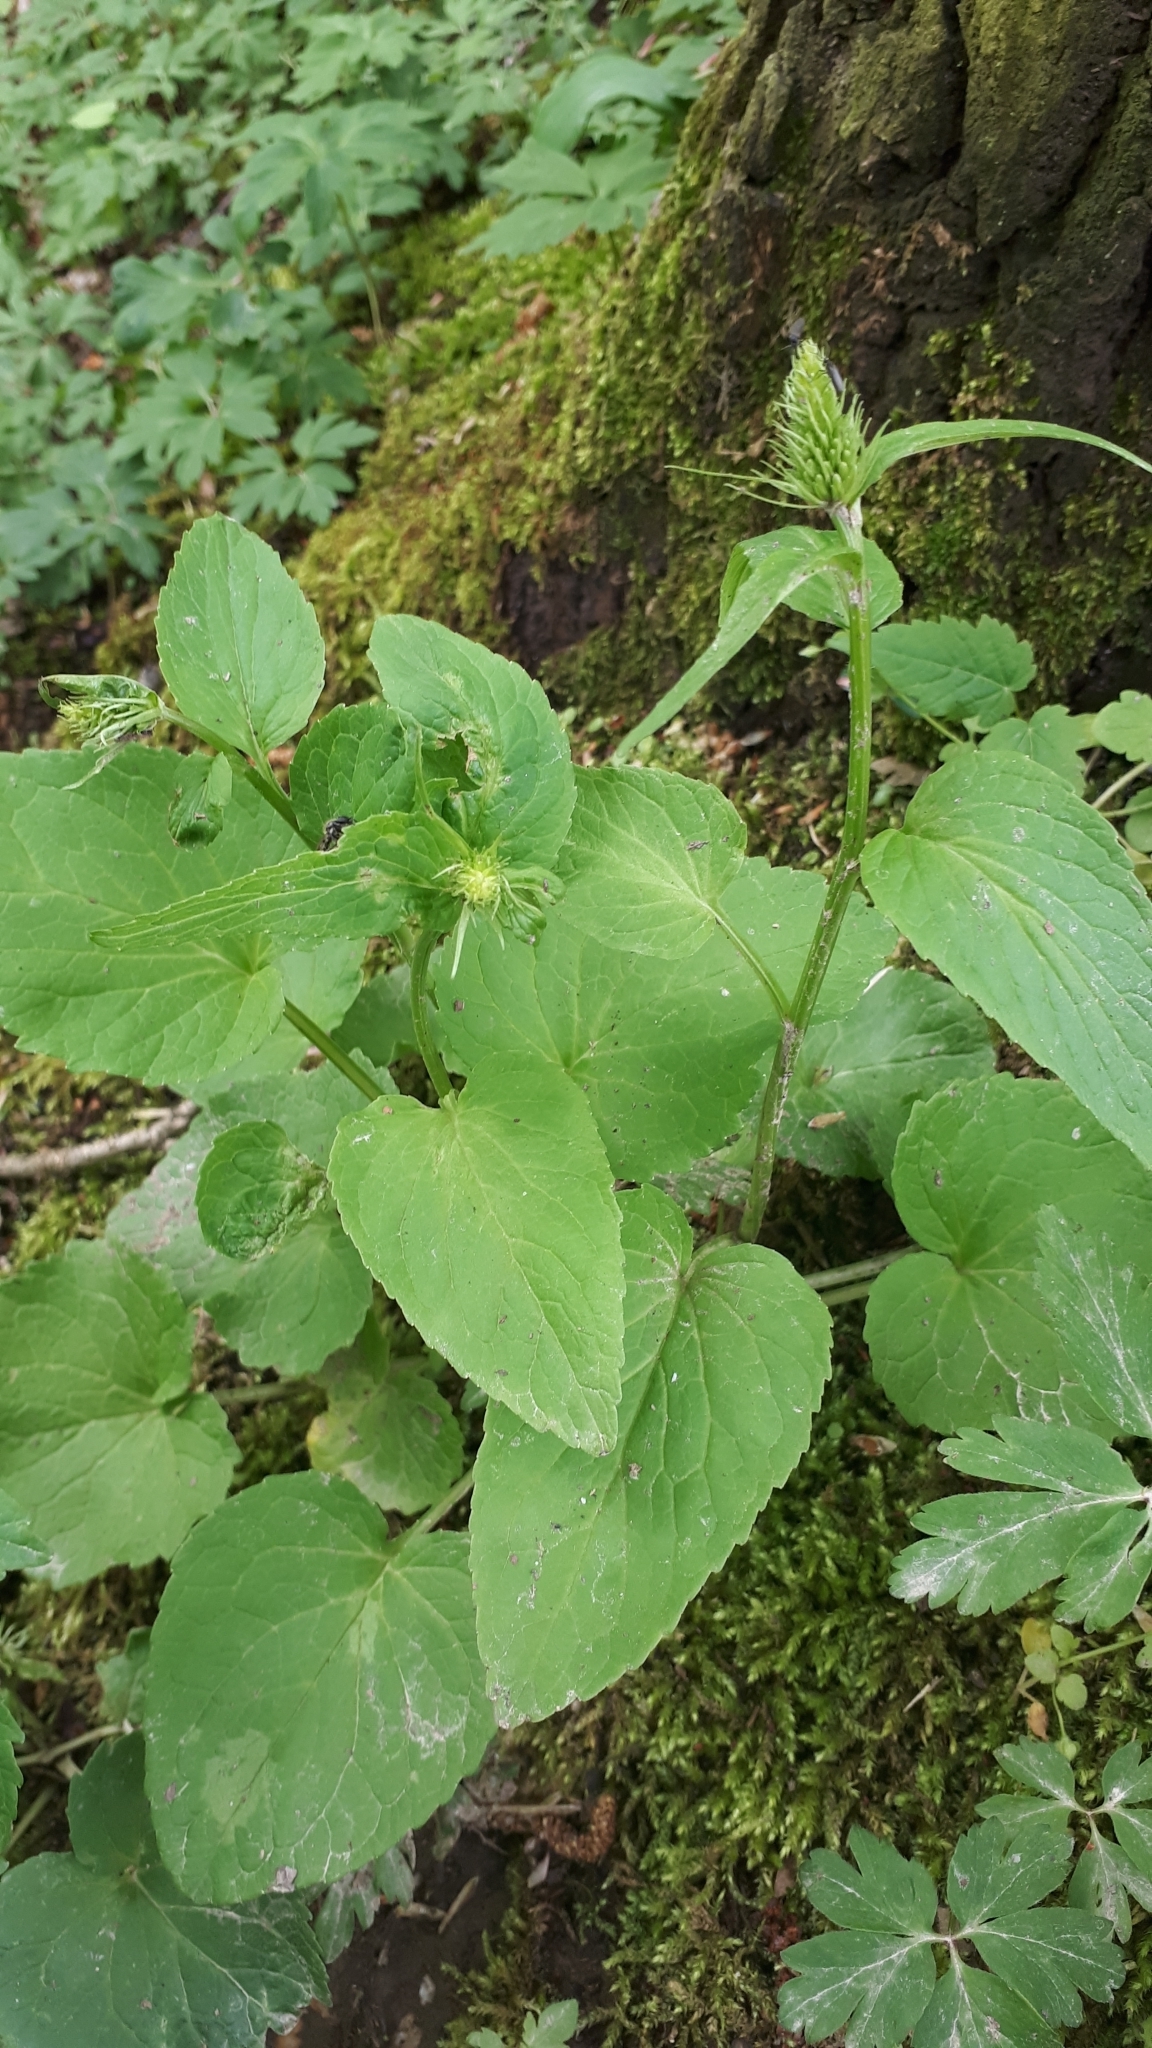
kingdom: Plantae
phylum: Tracheophyta
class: Magnoliopsida
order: Asterales
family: Campanulaceae
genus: Phyteuma
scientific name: Phyteuma spicatum
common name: Spiked rampion
